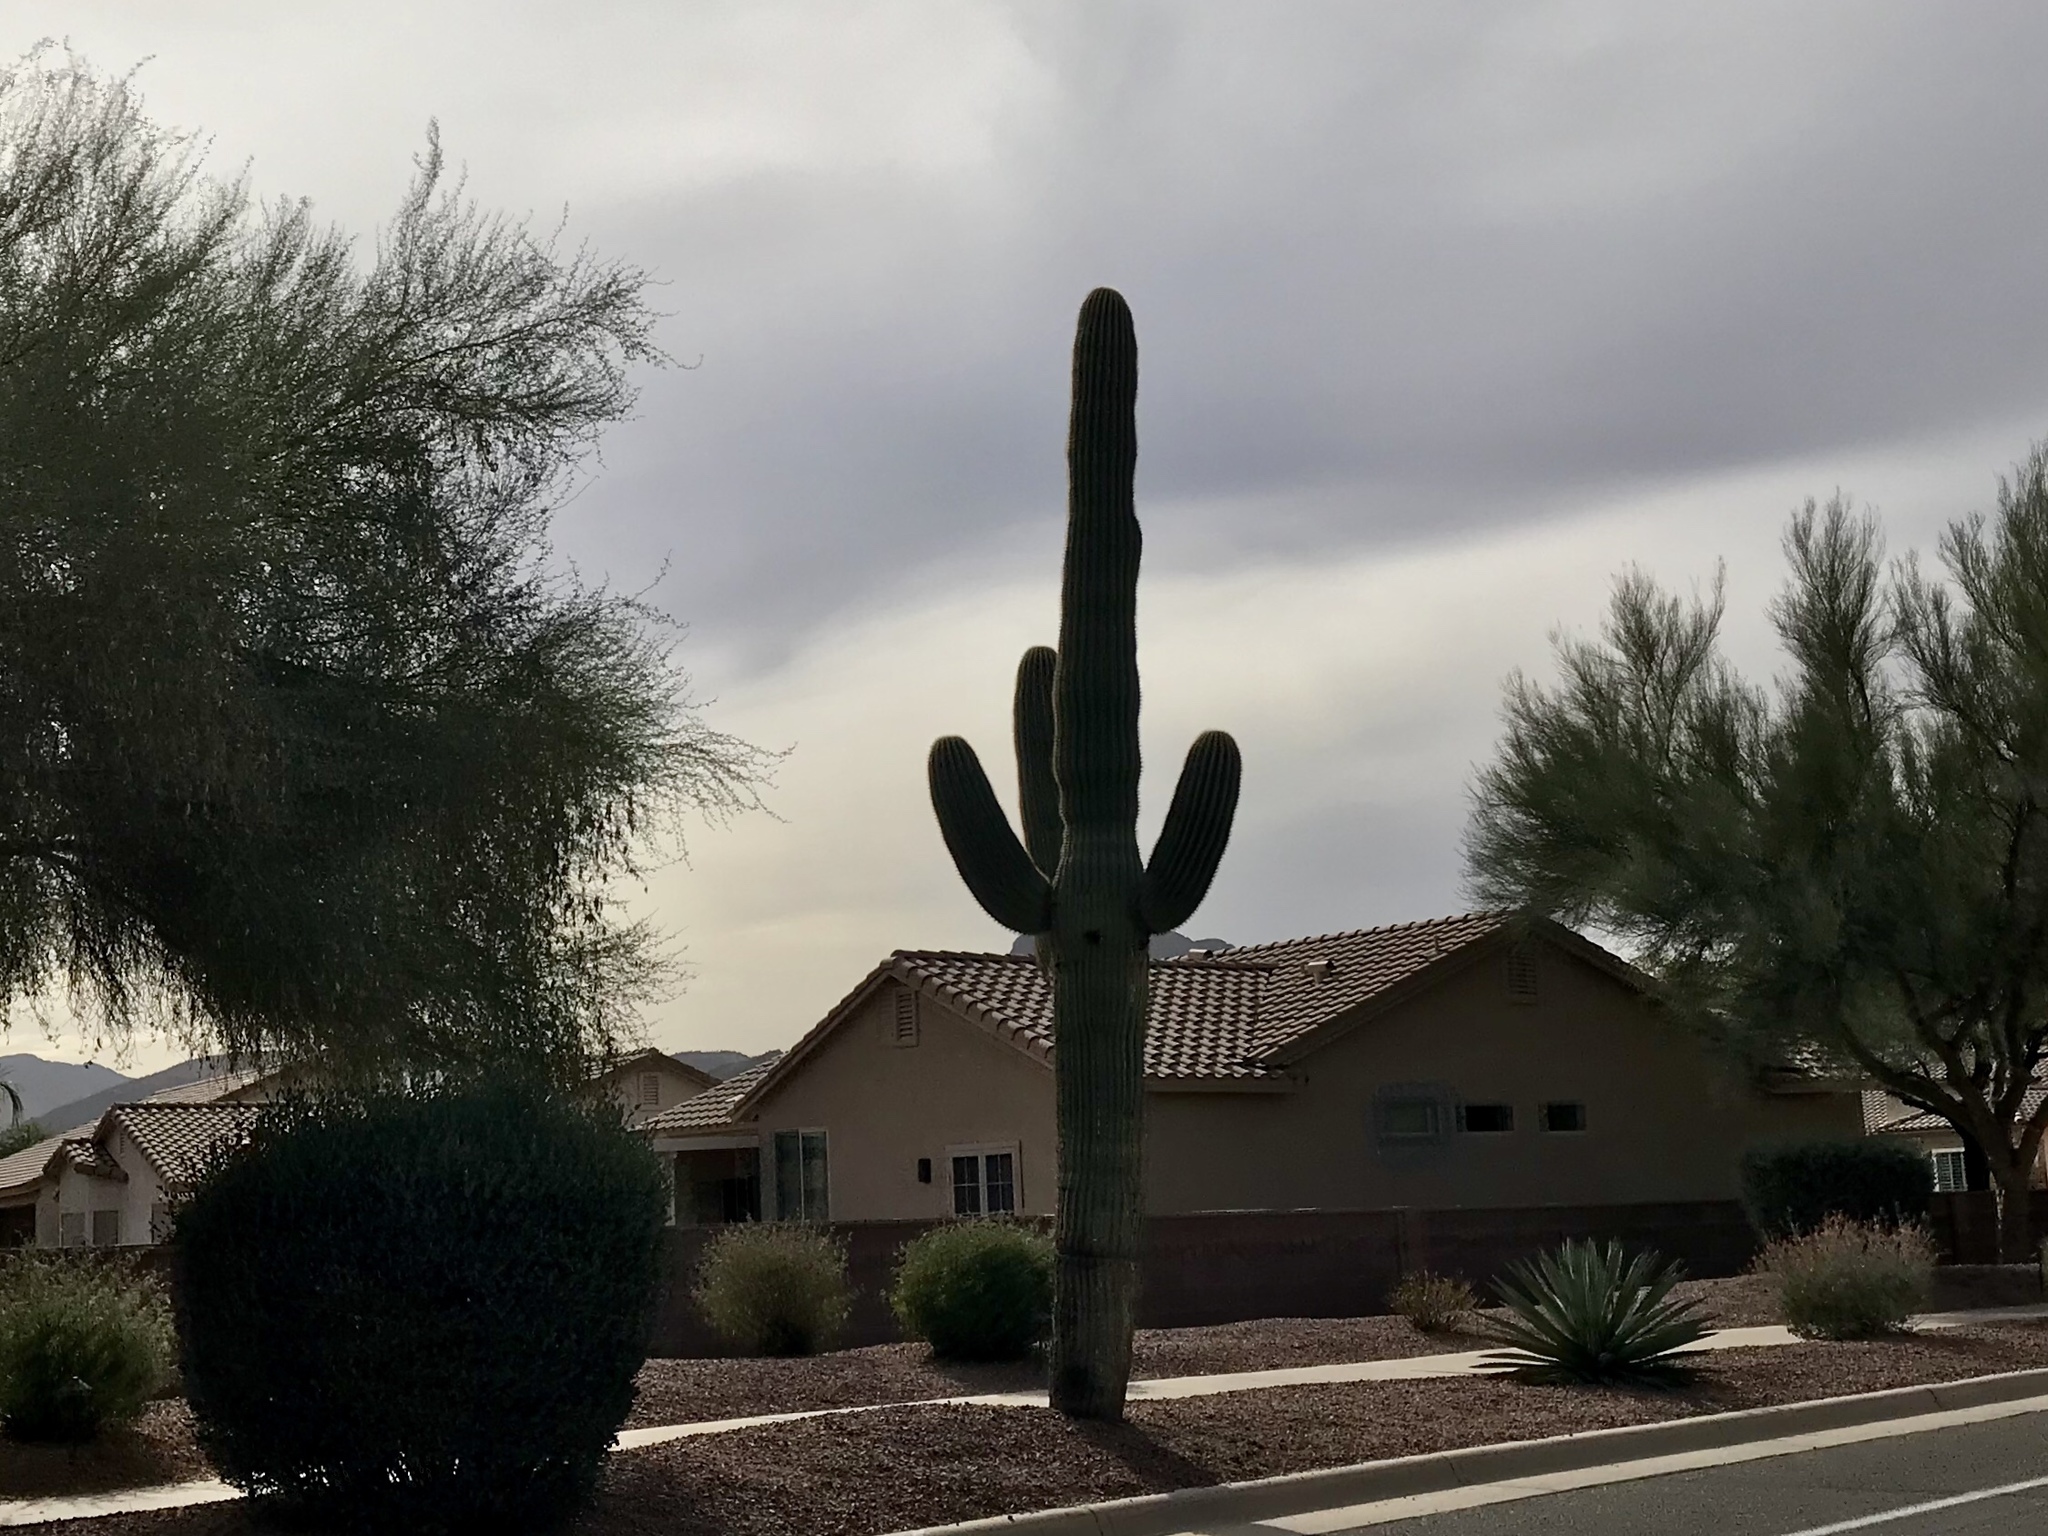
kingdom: Plantae
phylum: Tracheophyta
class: Magnoliopsida
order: Caryophyllales
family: Cactaceae
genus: Carnegiea
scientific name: Carnegiea gigantea
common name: Saguaro
